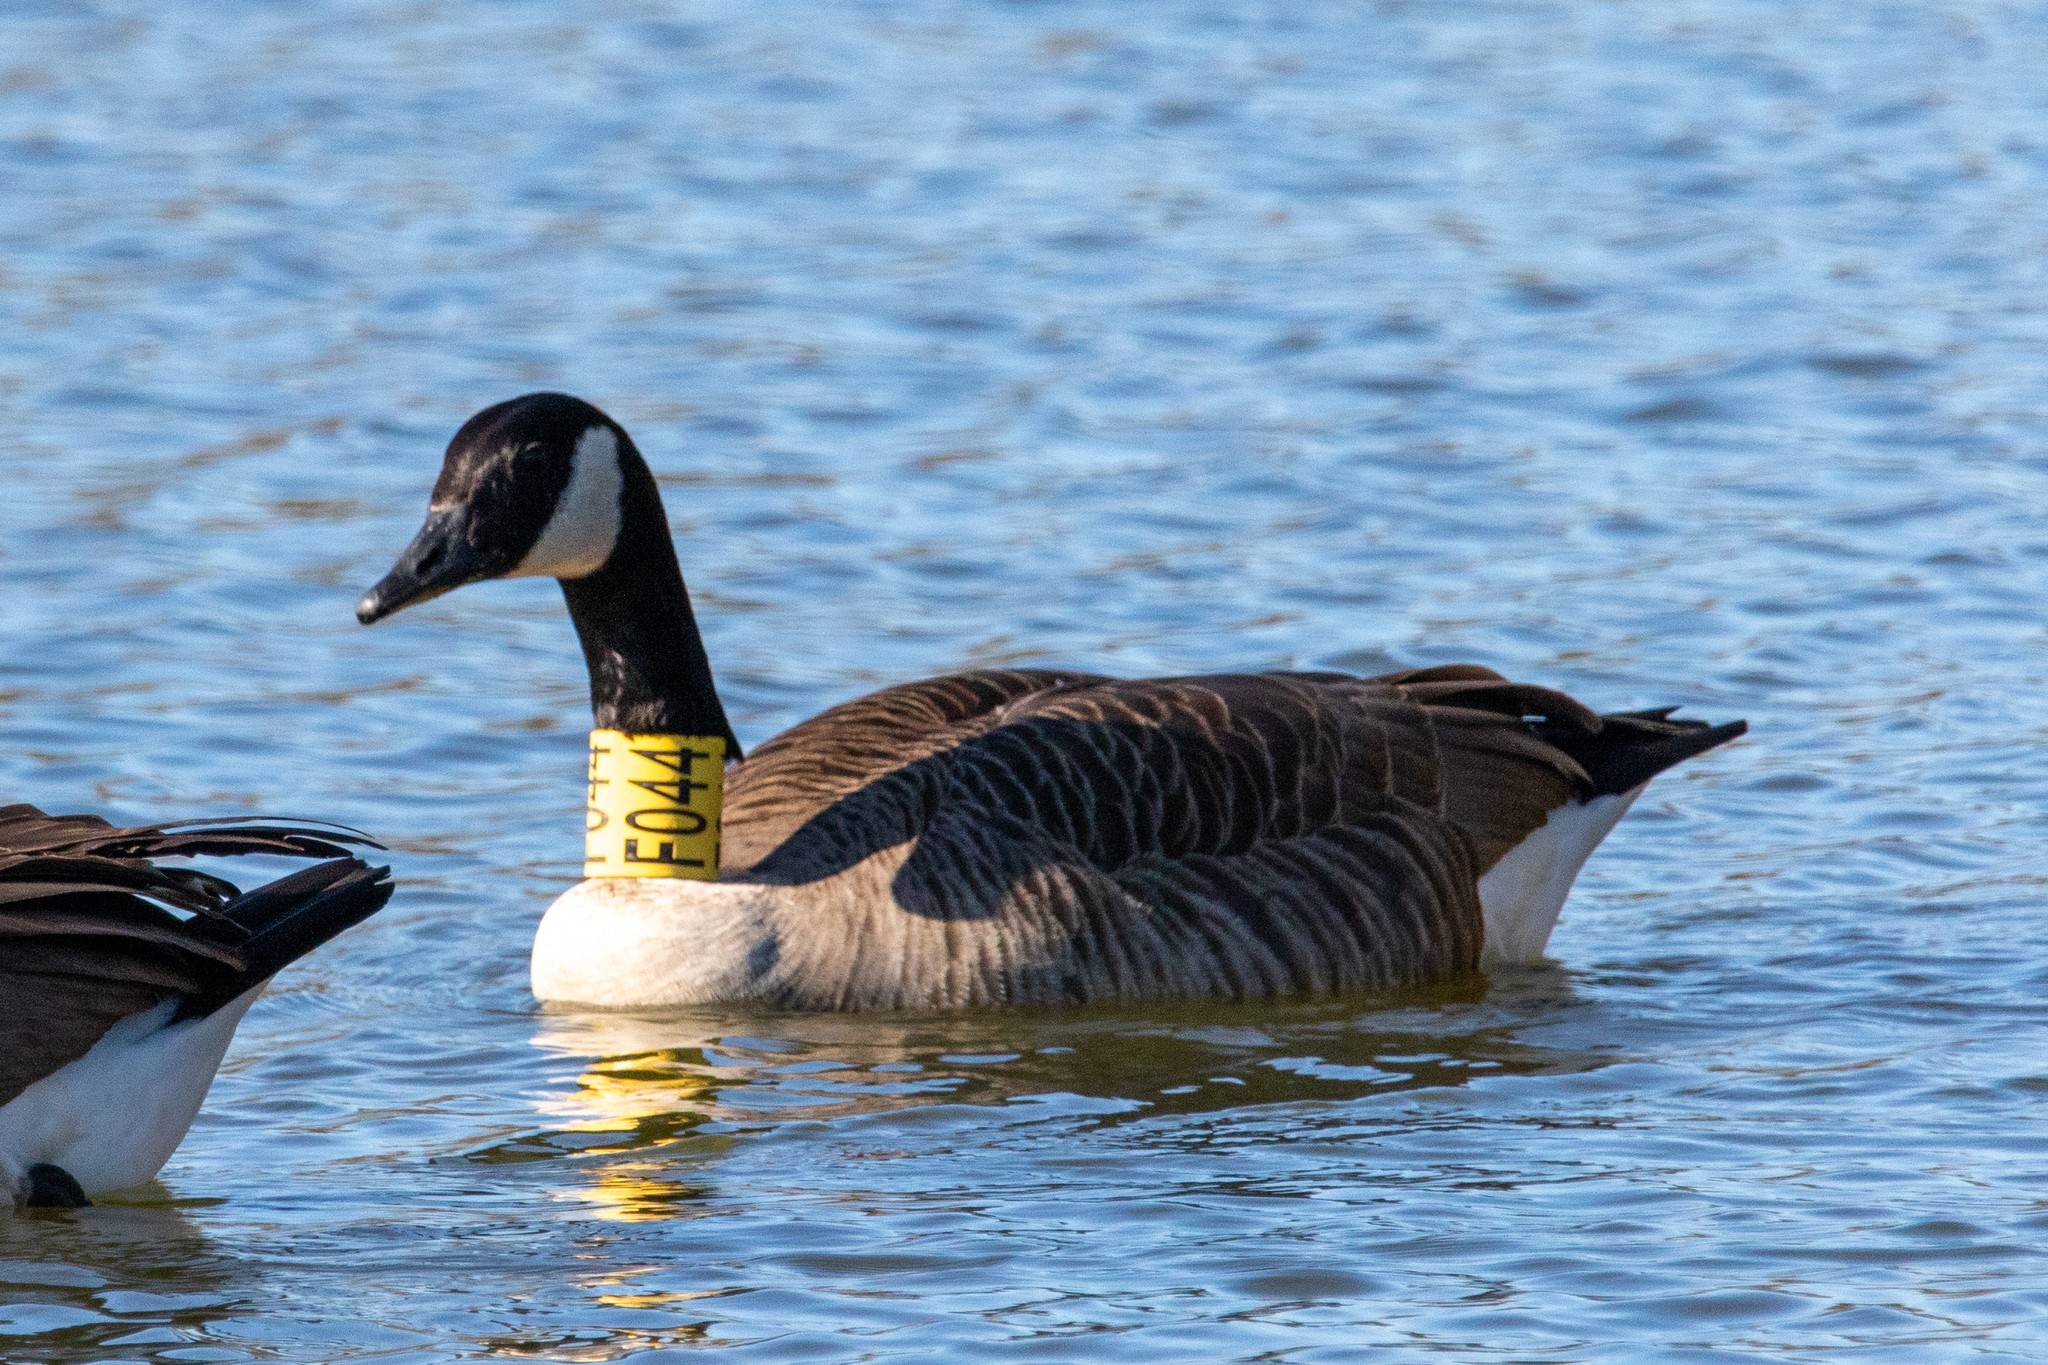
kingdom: Animalia
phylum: Chordata
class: Aves
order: Anseriformes
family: Anatidae
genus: Branta
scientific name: Branta canadensis
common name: Canada goose
